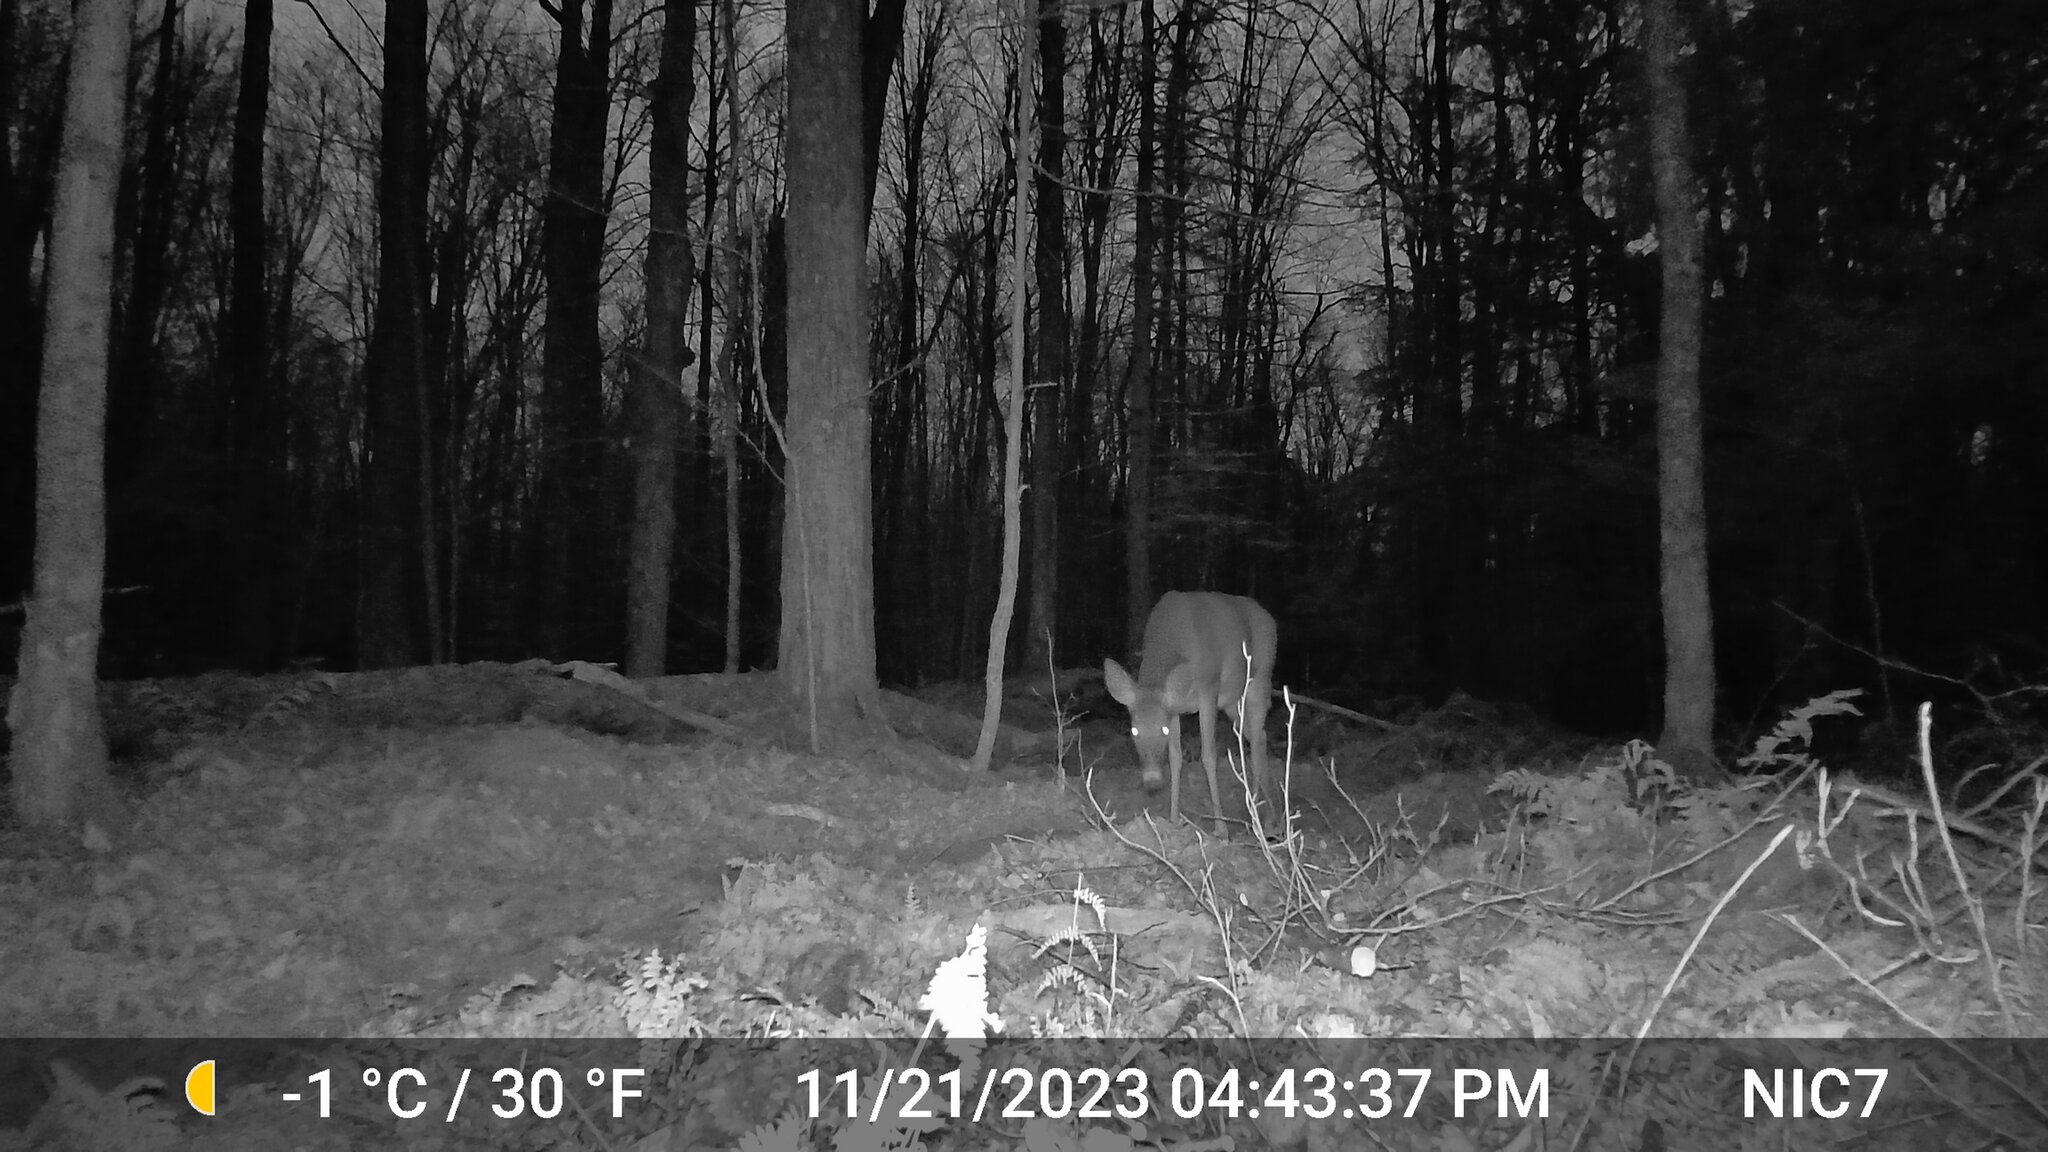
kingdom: Animalia
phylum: Chordata
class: Mammalia
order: Artiodactyla
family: Cervidae
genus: Odocoileus
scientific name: Odocoileus virginianus
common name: White-tailed deer
